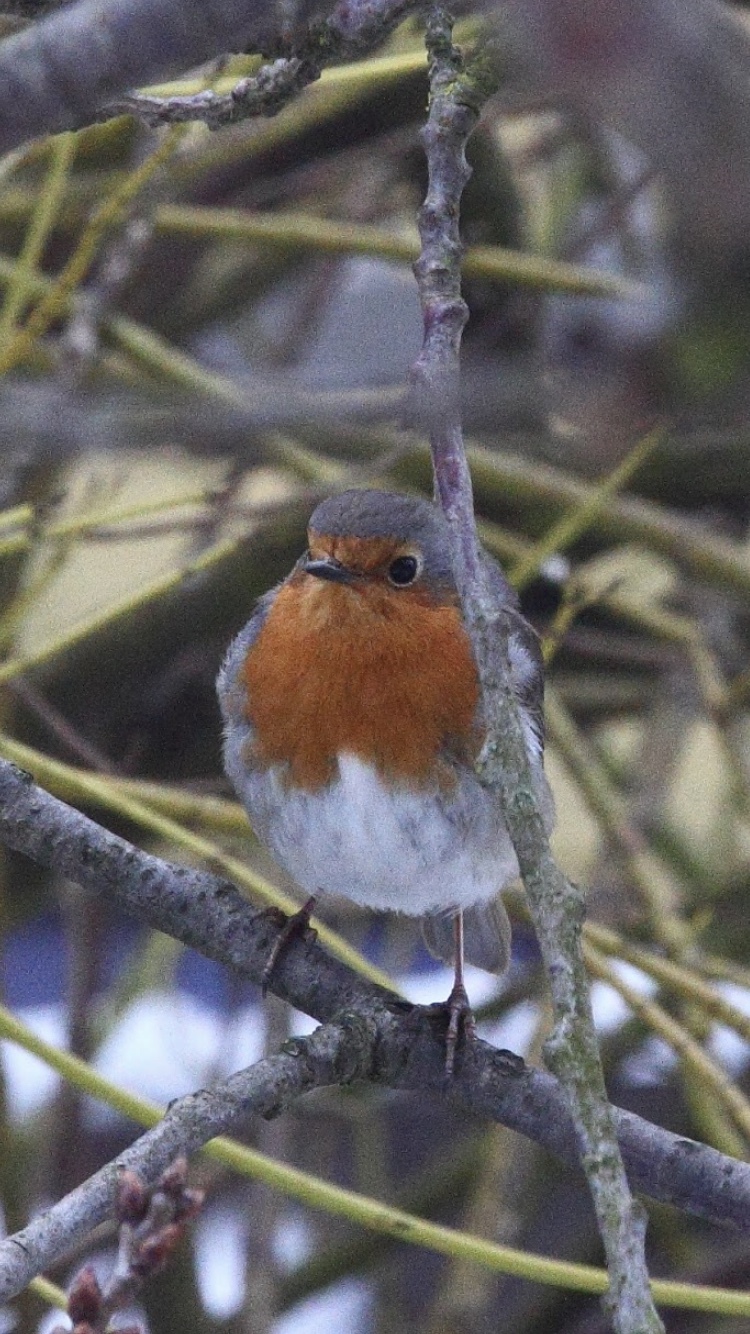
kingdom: Animalia
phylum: Chordata
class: Aves
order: Passeriformes
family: Muscicapidae
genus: Erithacus
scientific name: Erithacus rubecula
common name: European robin
